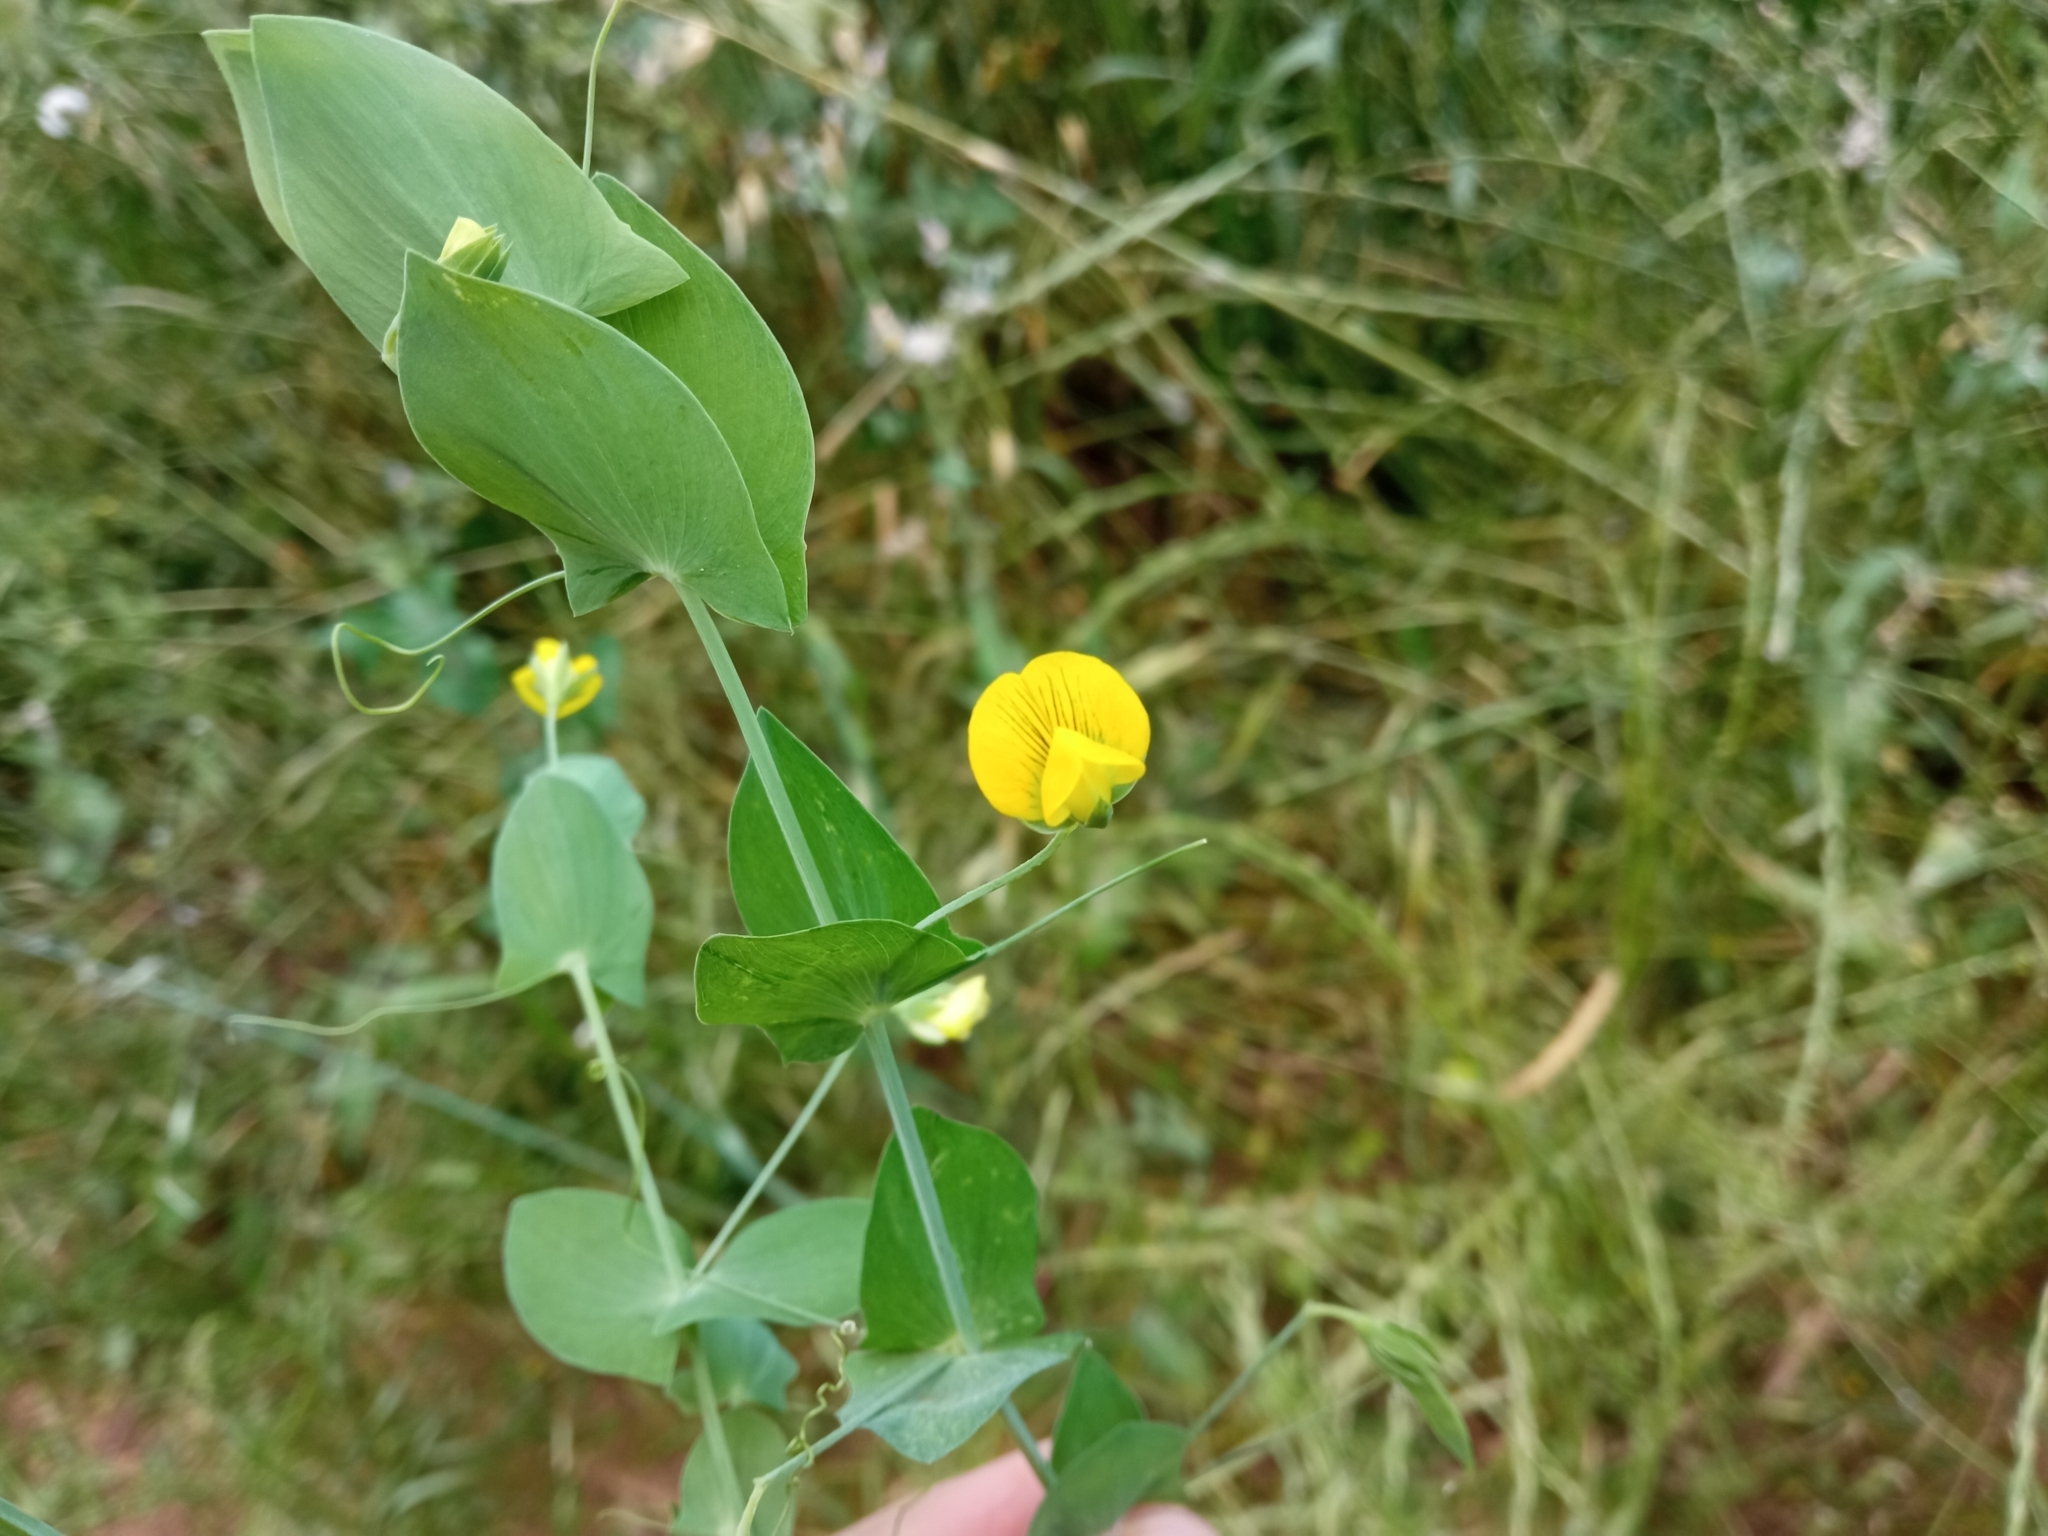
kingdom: Plantae
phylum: Tracheophyta
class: Magnoliopsida
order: Fabales
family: Fabaceae
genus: Lathyrus
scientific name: Lathyrus aphaca
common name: Yellow vetchling
